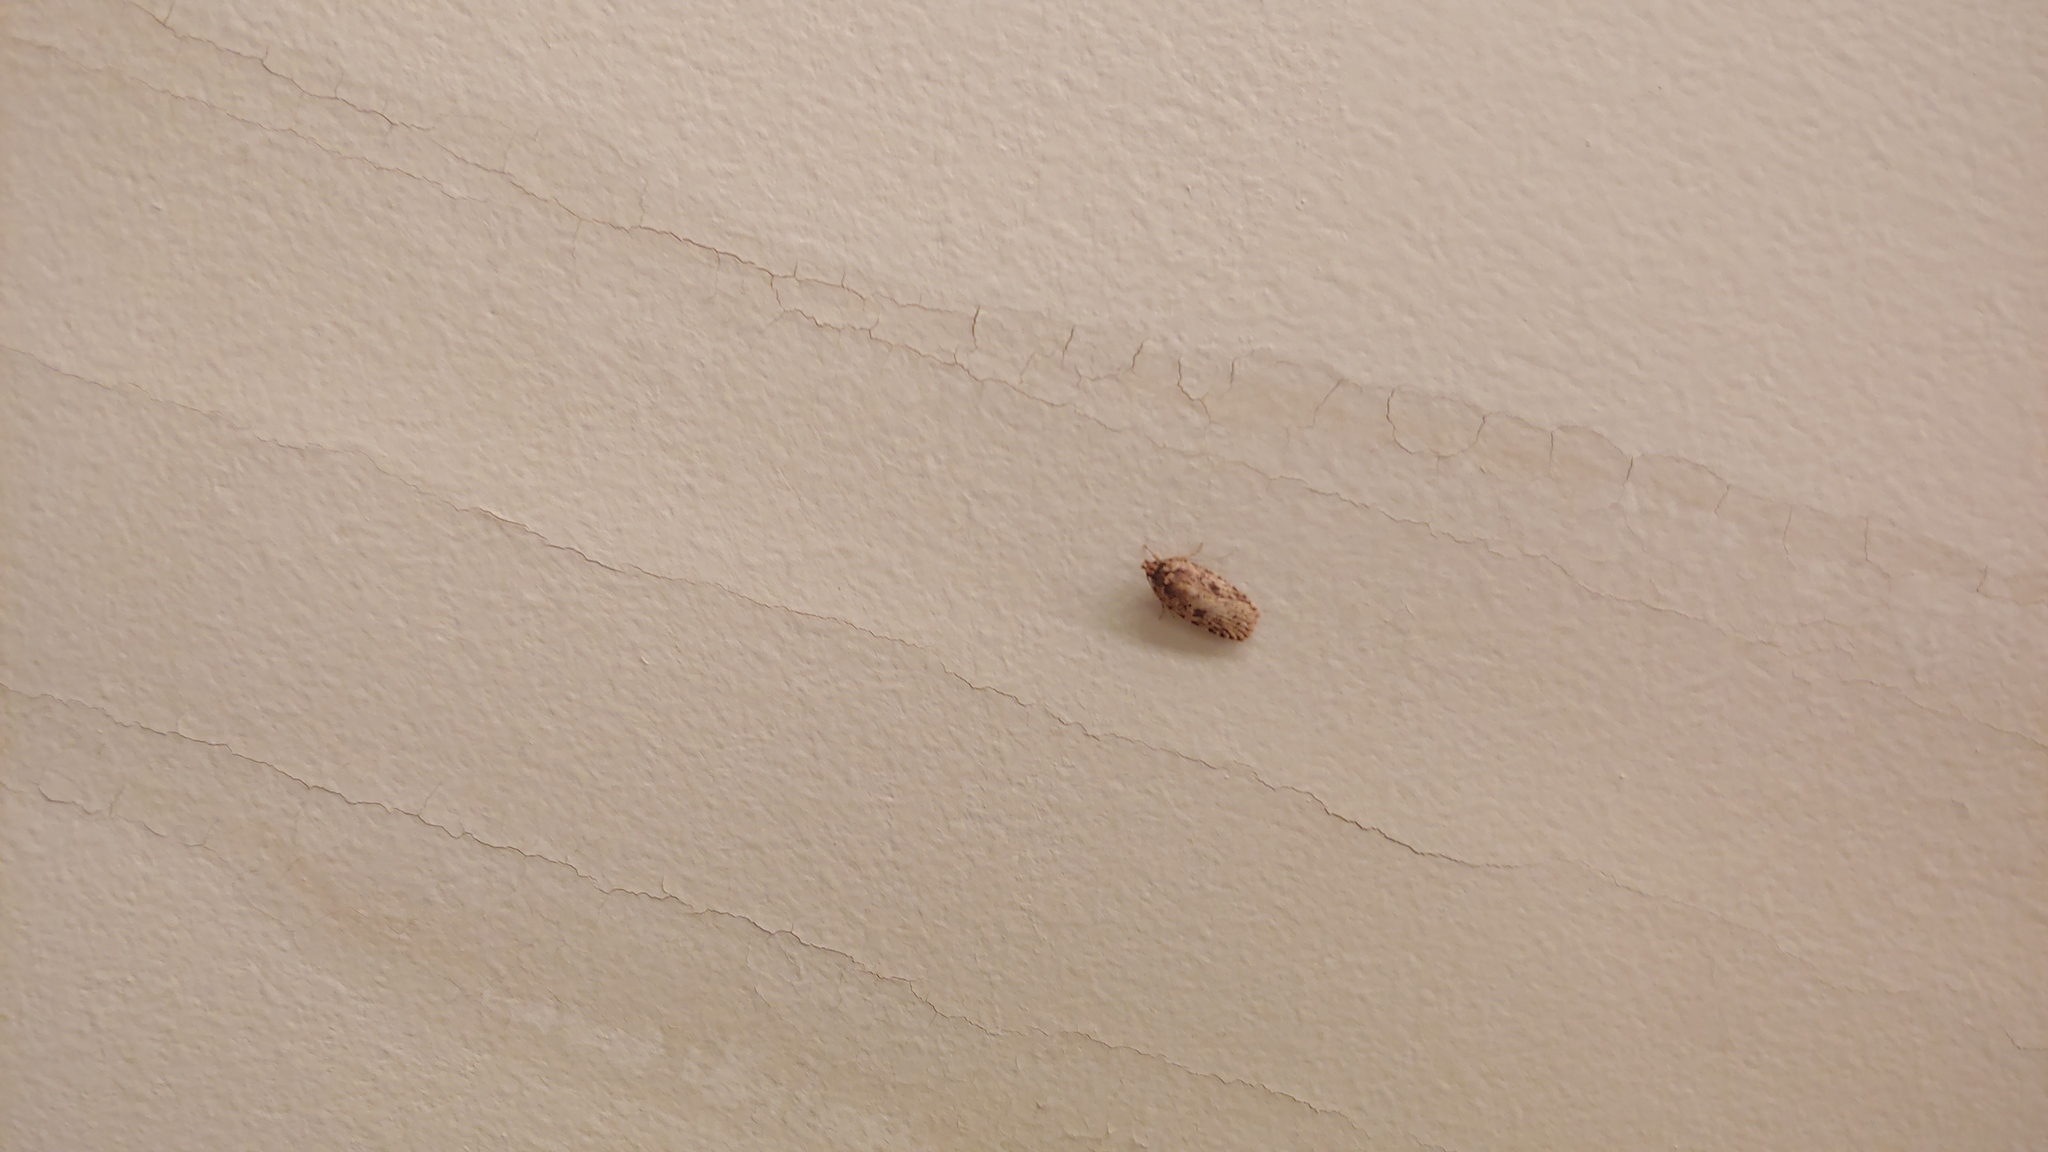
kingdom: Animalia
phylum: Arthropoda
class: Insecta
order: Lepidoptera
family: Depressariidae
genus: Agonopterix
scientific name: Agonopterix pulvipennella
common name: Goldenrod leafffolder
